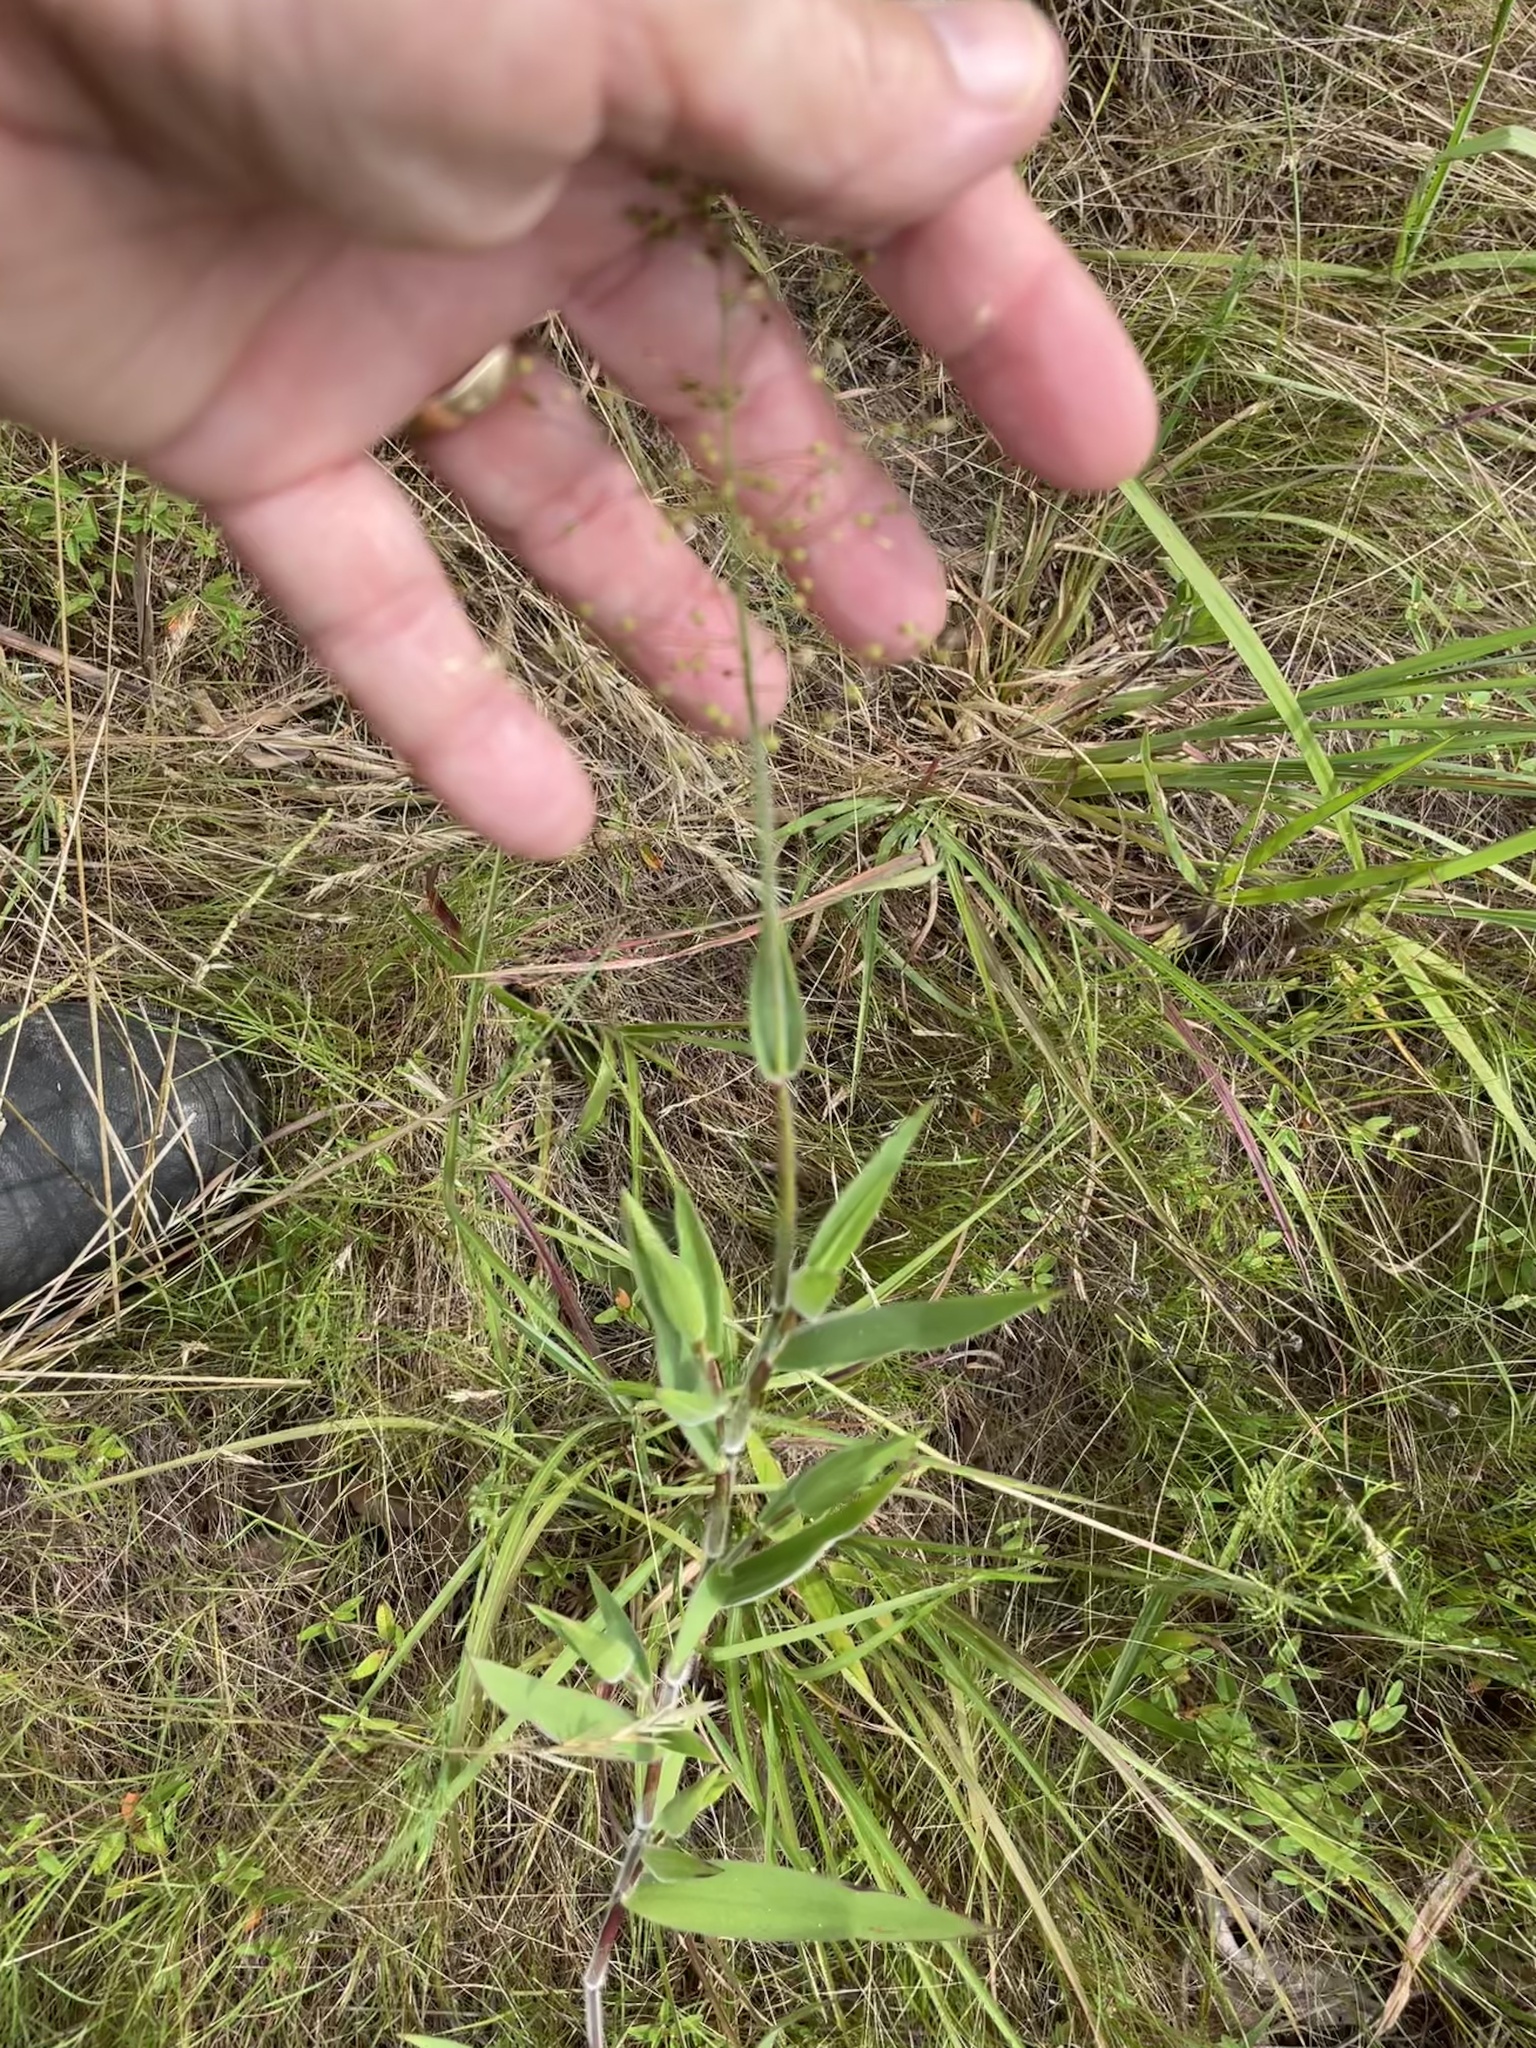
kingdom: Plantae
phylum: Tracheophyta
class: Liliopsida
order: Poales
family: Poaceae
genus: Dichanthelium
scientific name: Dichanthelium scoparium
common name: Velvety panic grass
